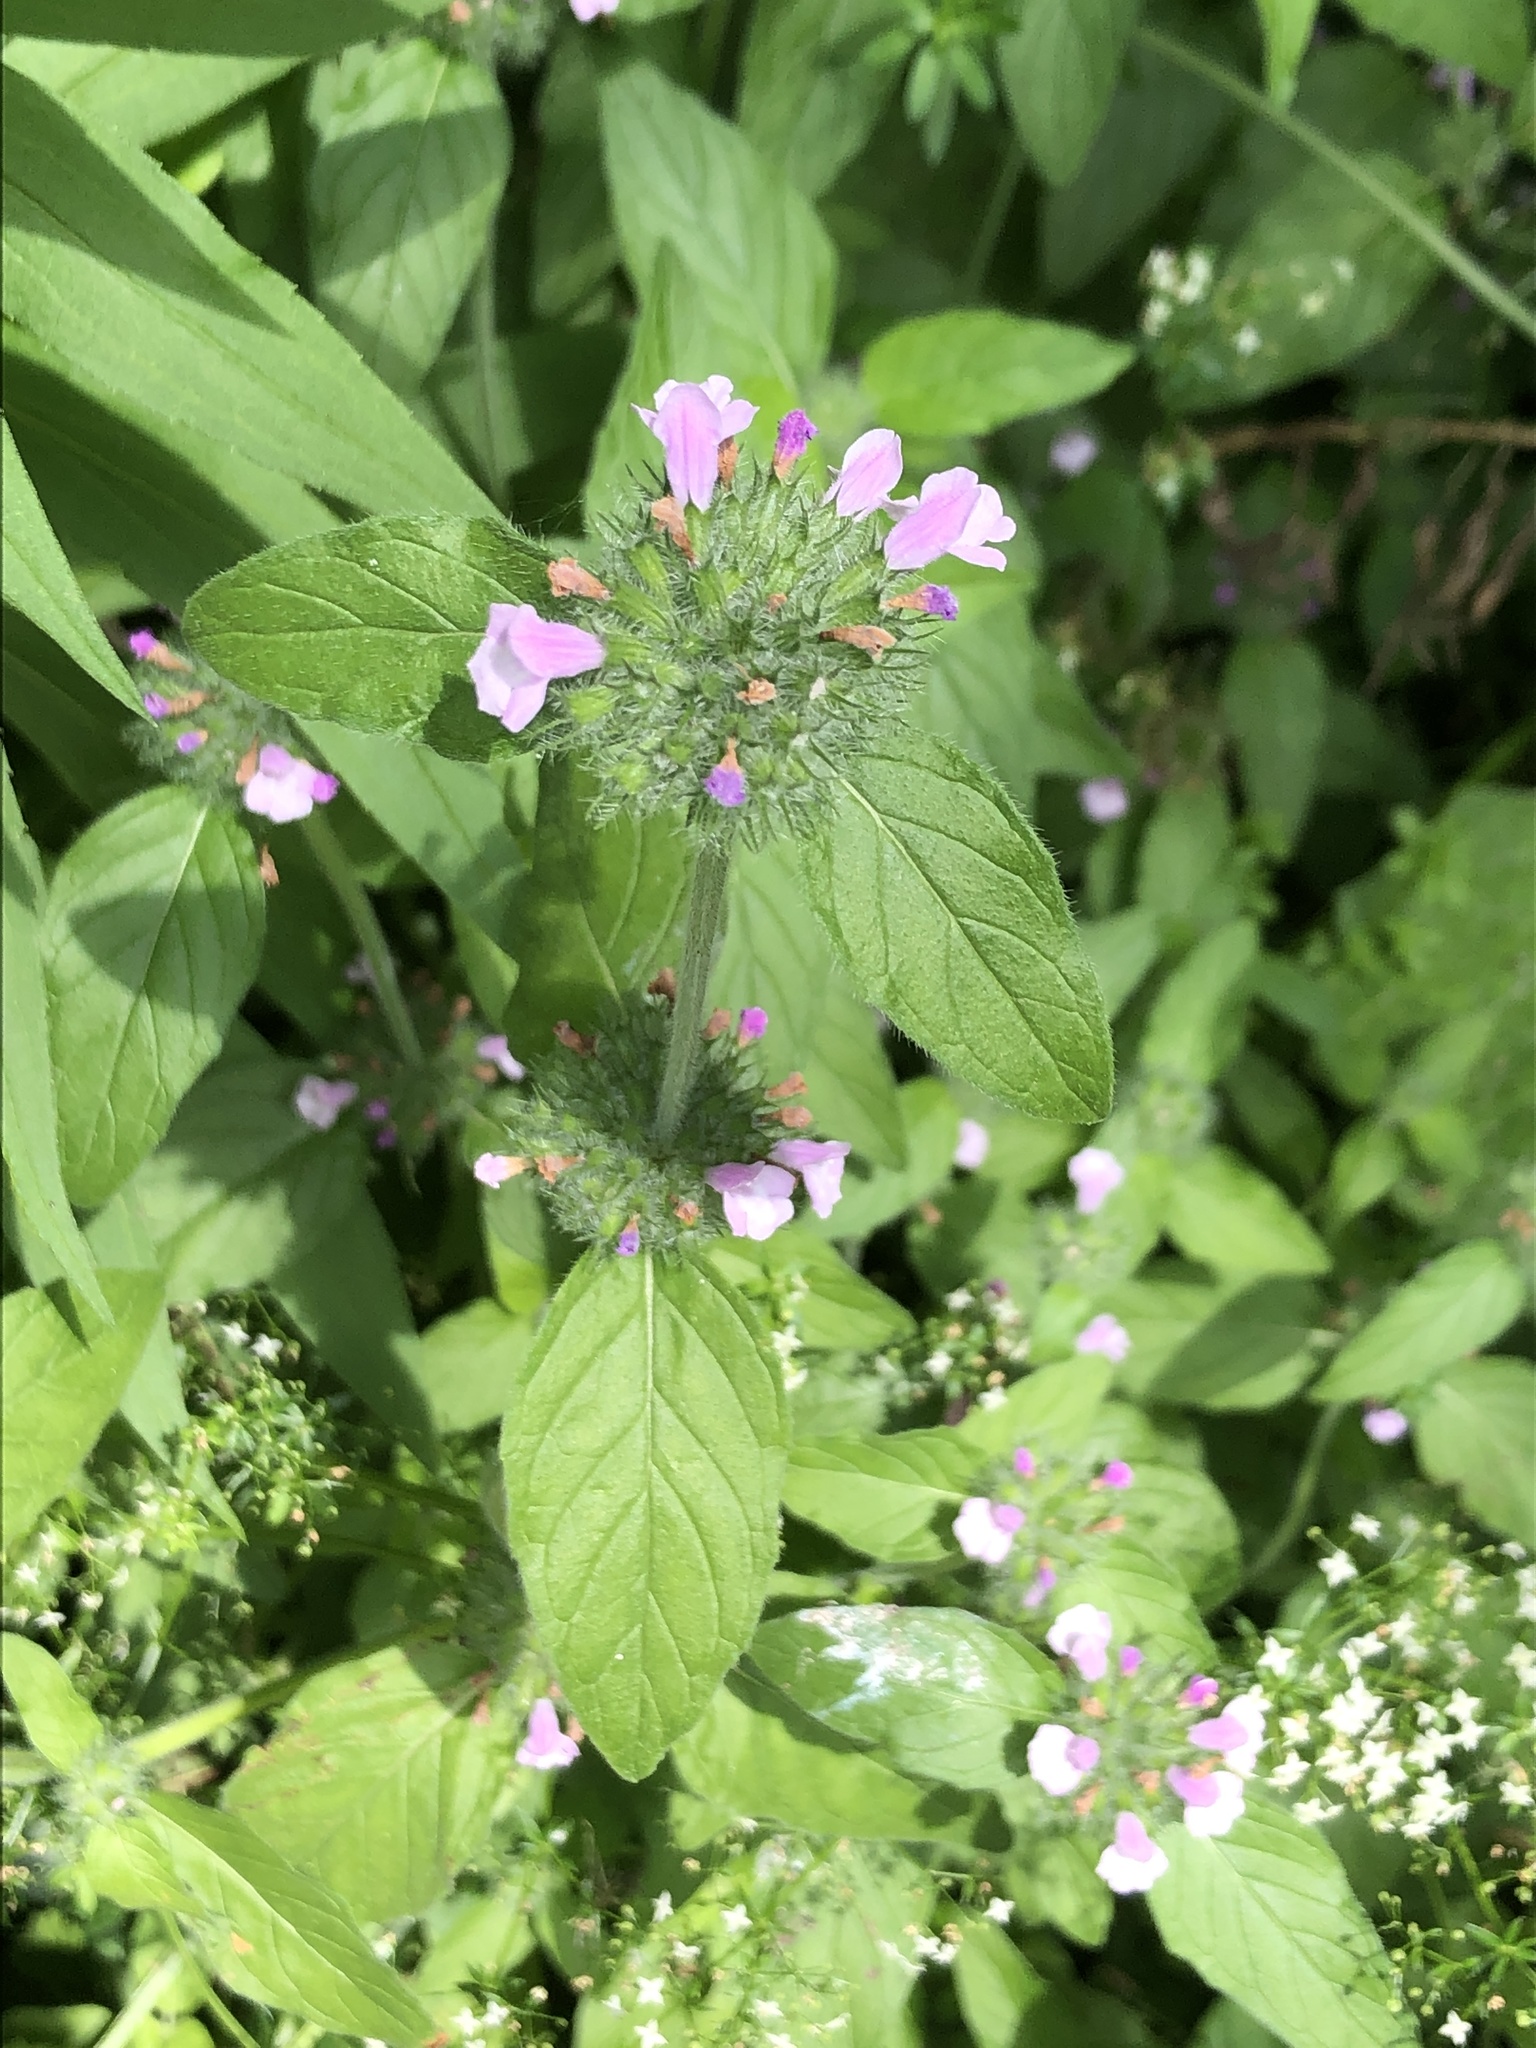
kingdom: Plantae
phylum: Tracheophyta
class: Magnoliopsida
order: Lamiales
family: Lamiaceae
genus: Clinopodium
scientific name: Clinopodium vulgare
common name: Wild basil
